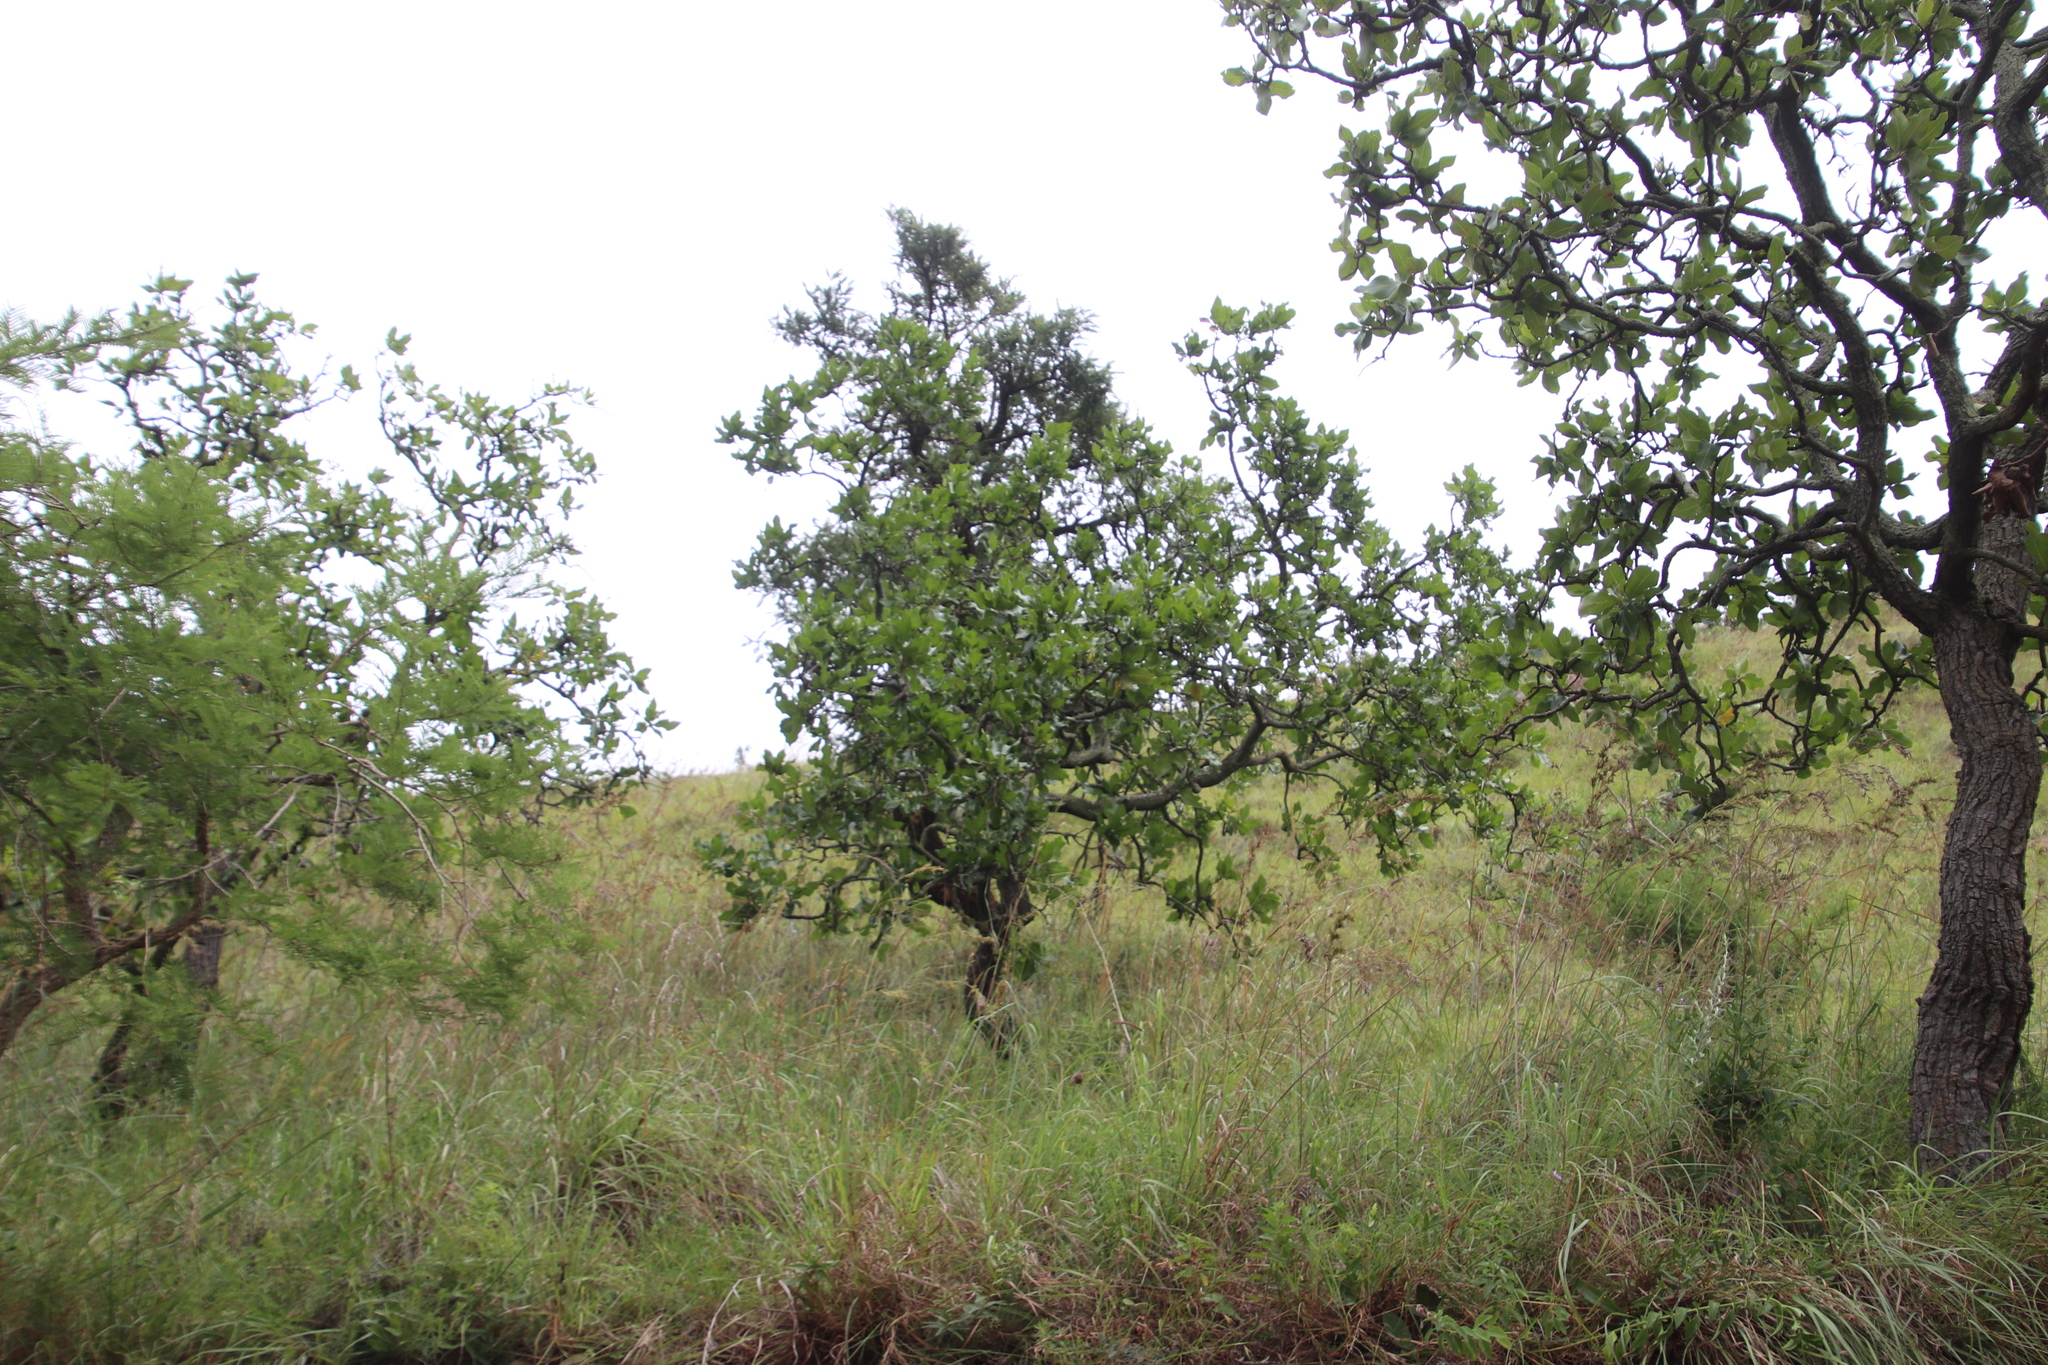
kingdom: Plantae
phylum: Tracheophyta
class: Magnoliopsida
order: Proteales
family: Proteaceae
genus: Faurea
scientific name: Faurea rochetiana
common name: Broad-leaved beech
